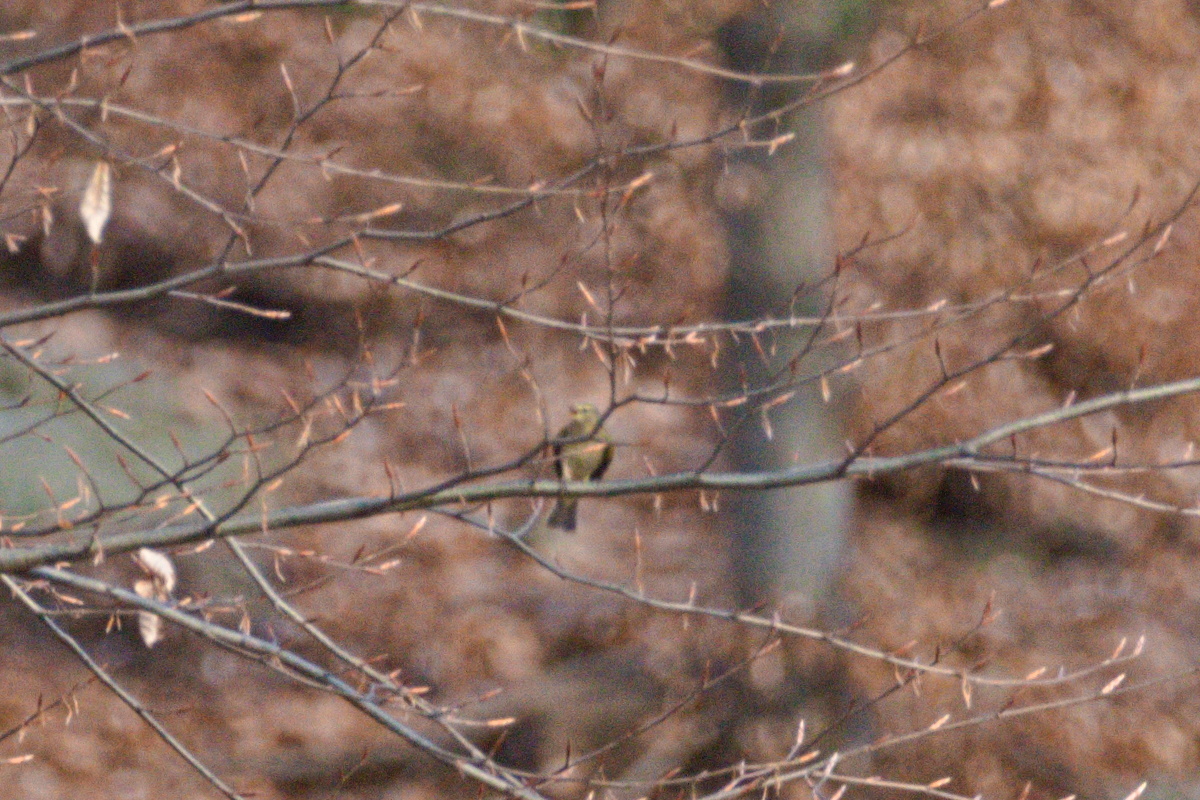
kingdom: Animalia
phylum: Chordata
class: Aves
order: Passeriformes
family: Phylloscopidae
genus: Phylloscopus
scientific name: Phylloscopus collybita
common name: Common chiffchaff
